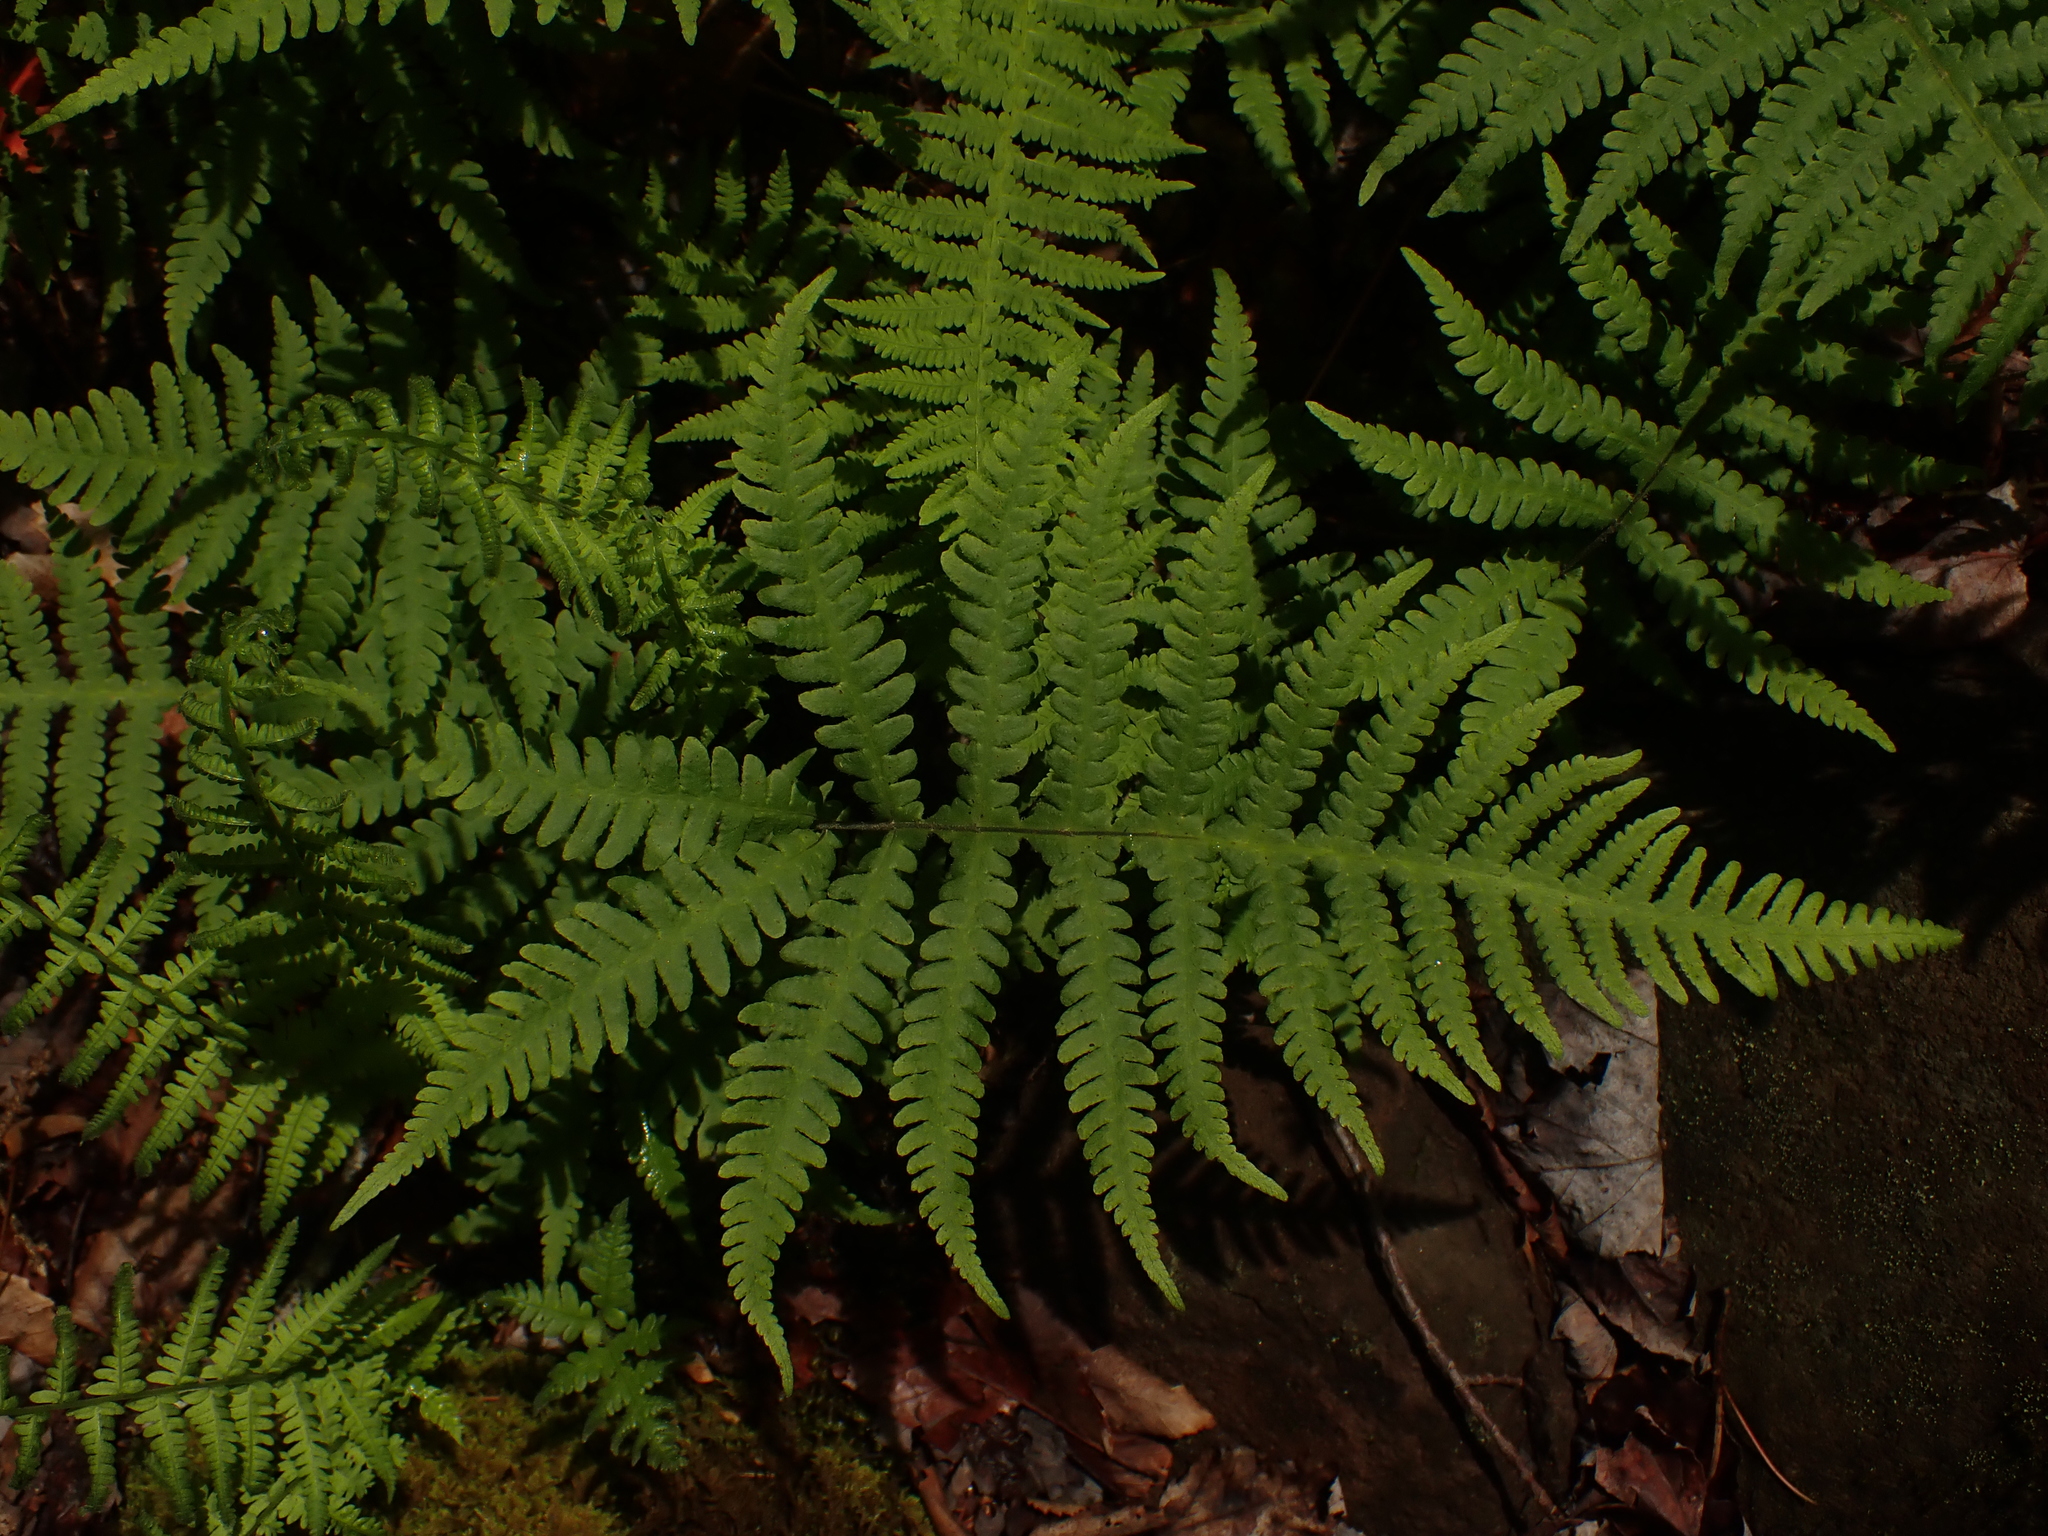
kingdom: Plantae
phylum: Tracheophyta
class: Polypodiopsida
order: Polypodiales
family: Thelypteridaceae
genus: Phegopteris
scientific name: Phegopteris connectilis
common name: Beech fern
